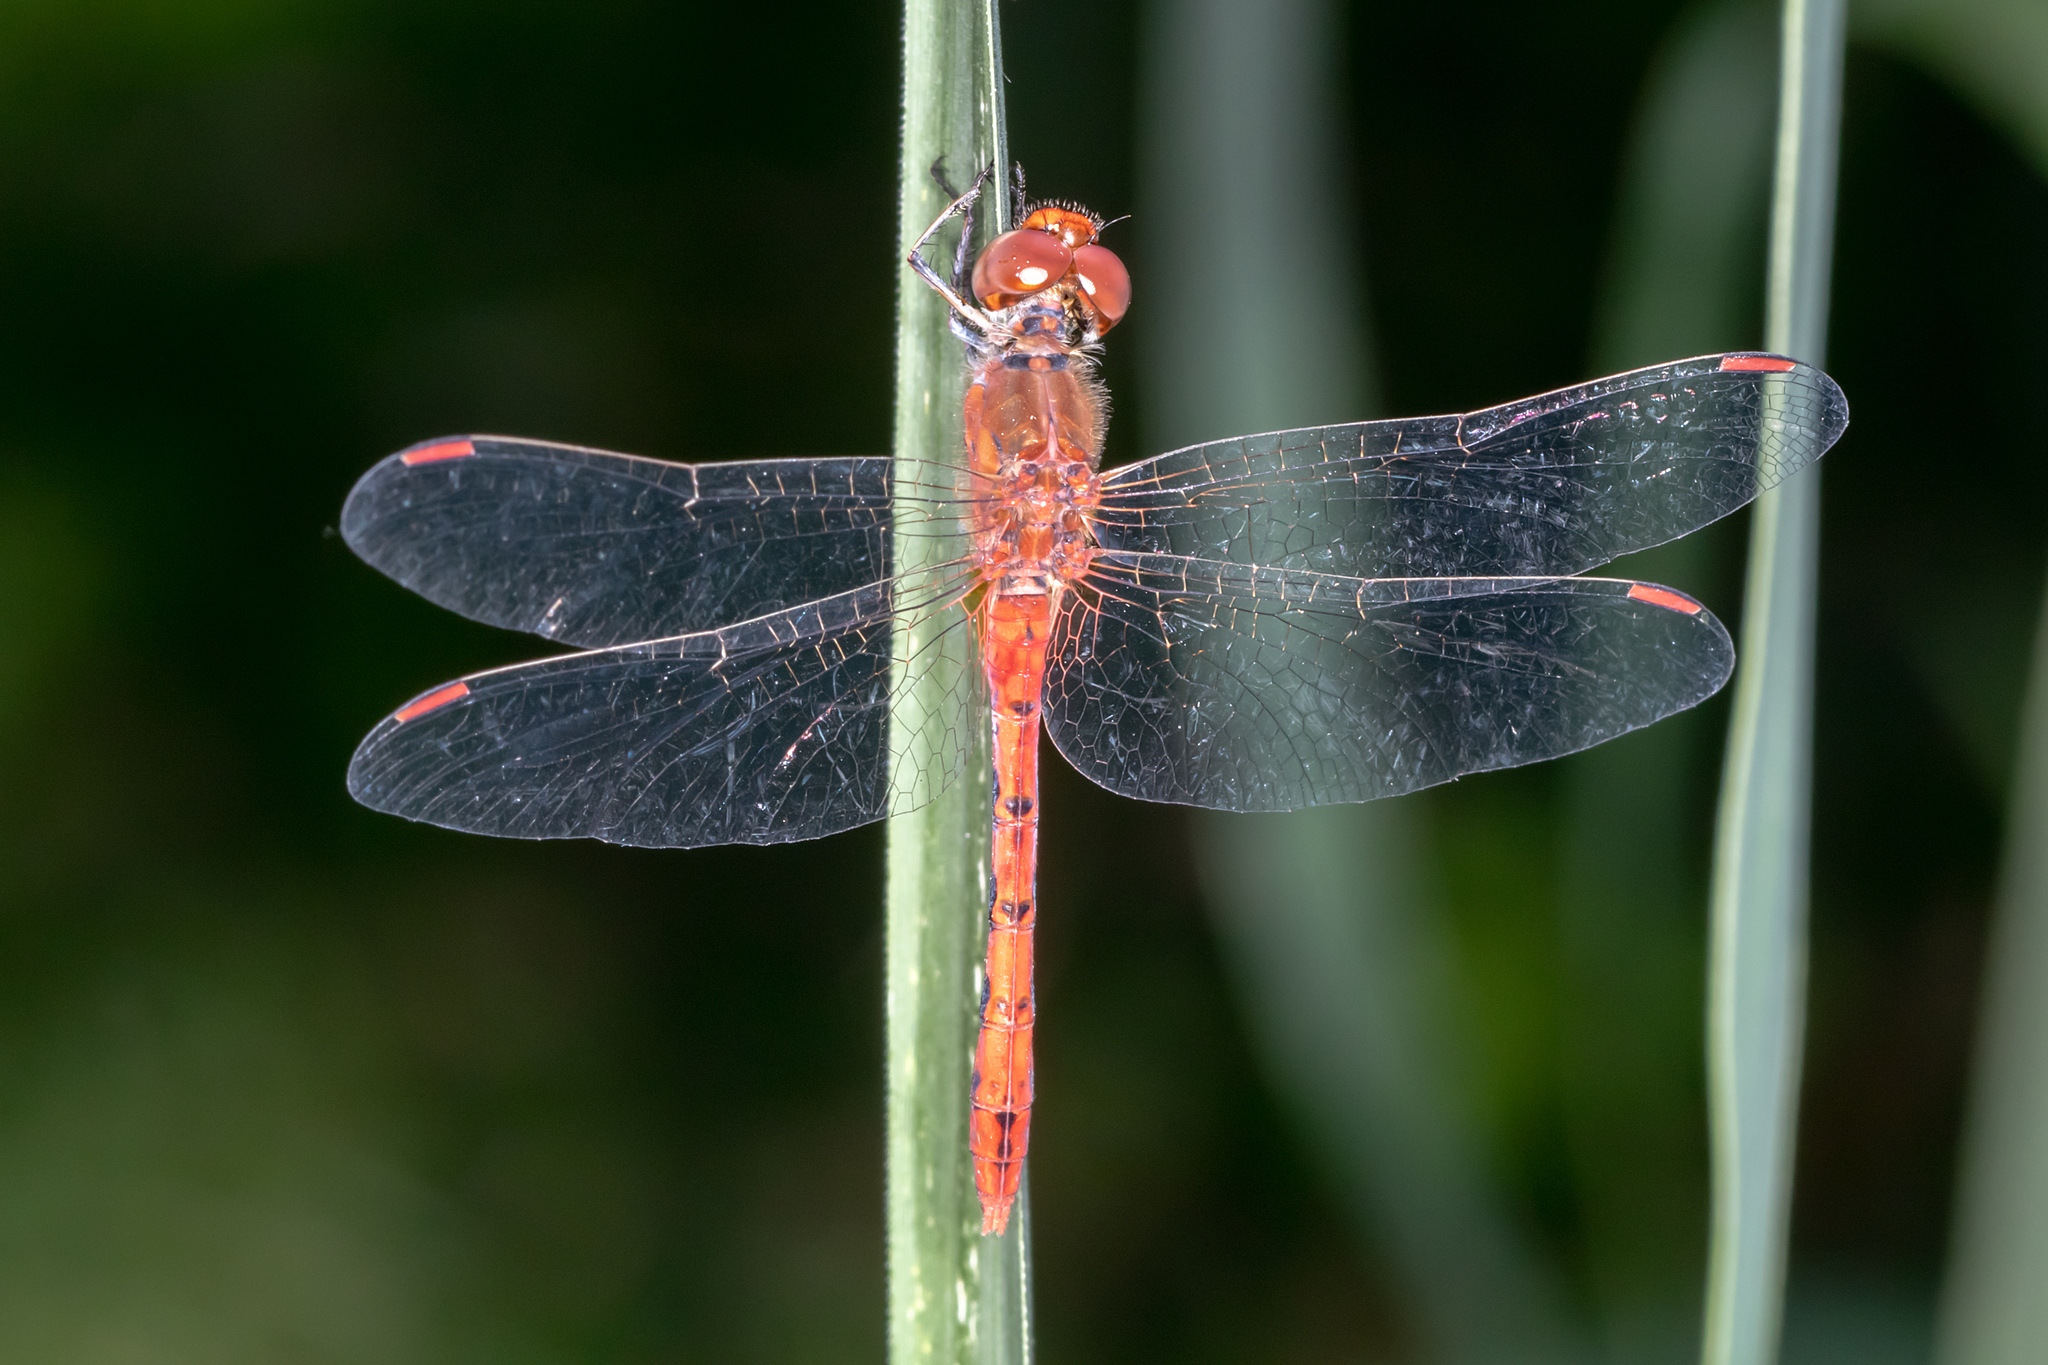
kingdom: Animalia
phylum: Arthropoda
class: Insecta
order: Odonata
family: Libellulidae
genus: Diplacodes
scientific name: Diplacodes bipunctata
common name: Red percher dragonfly
